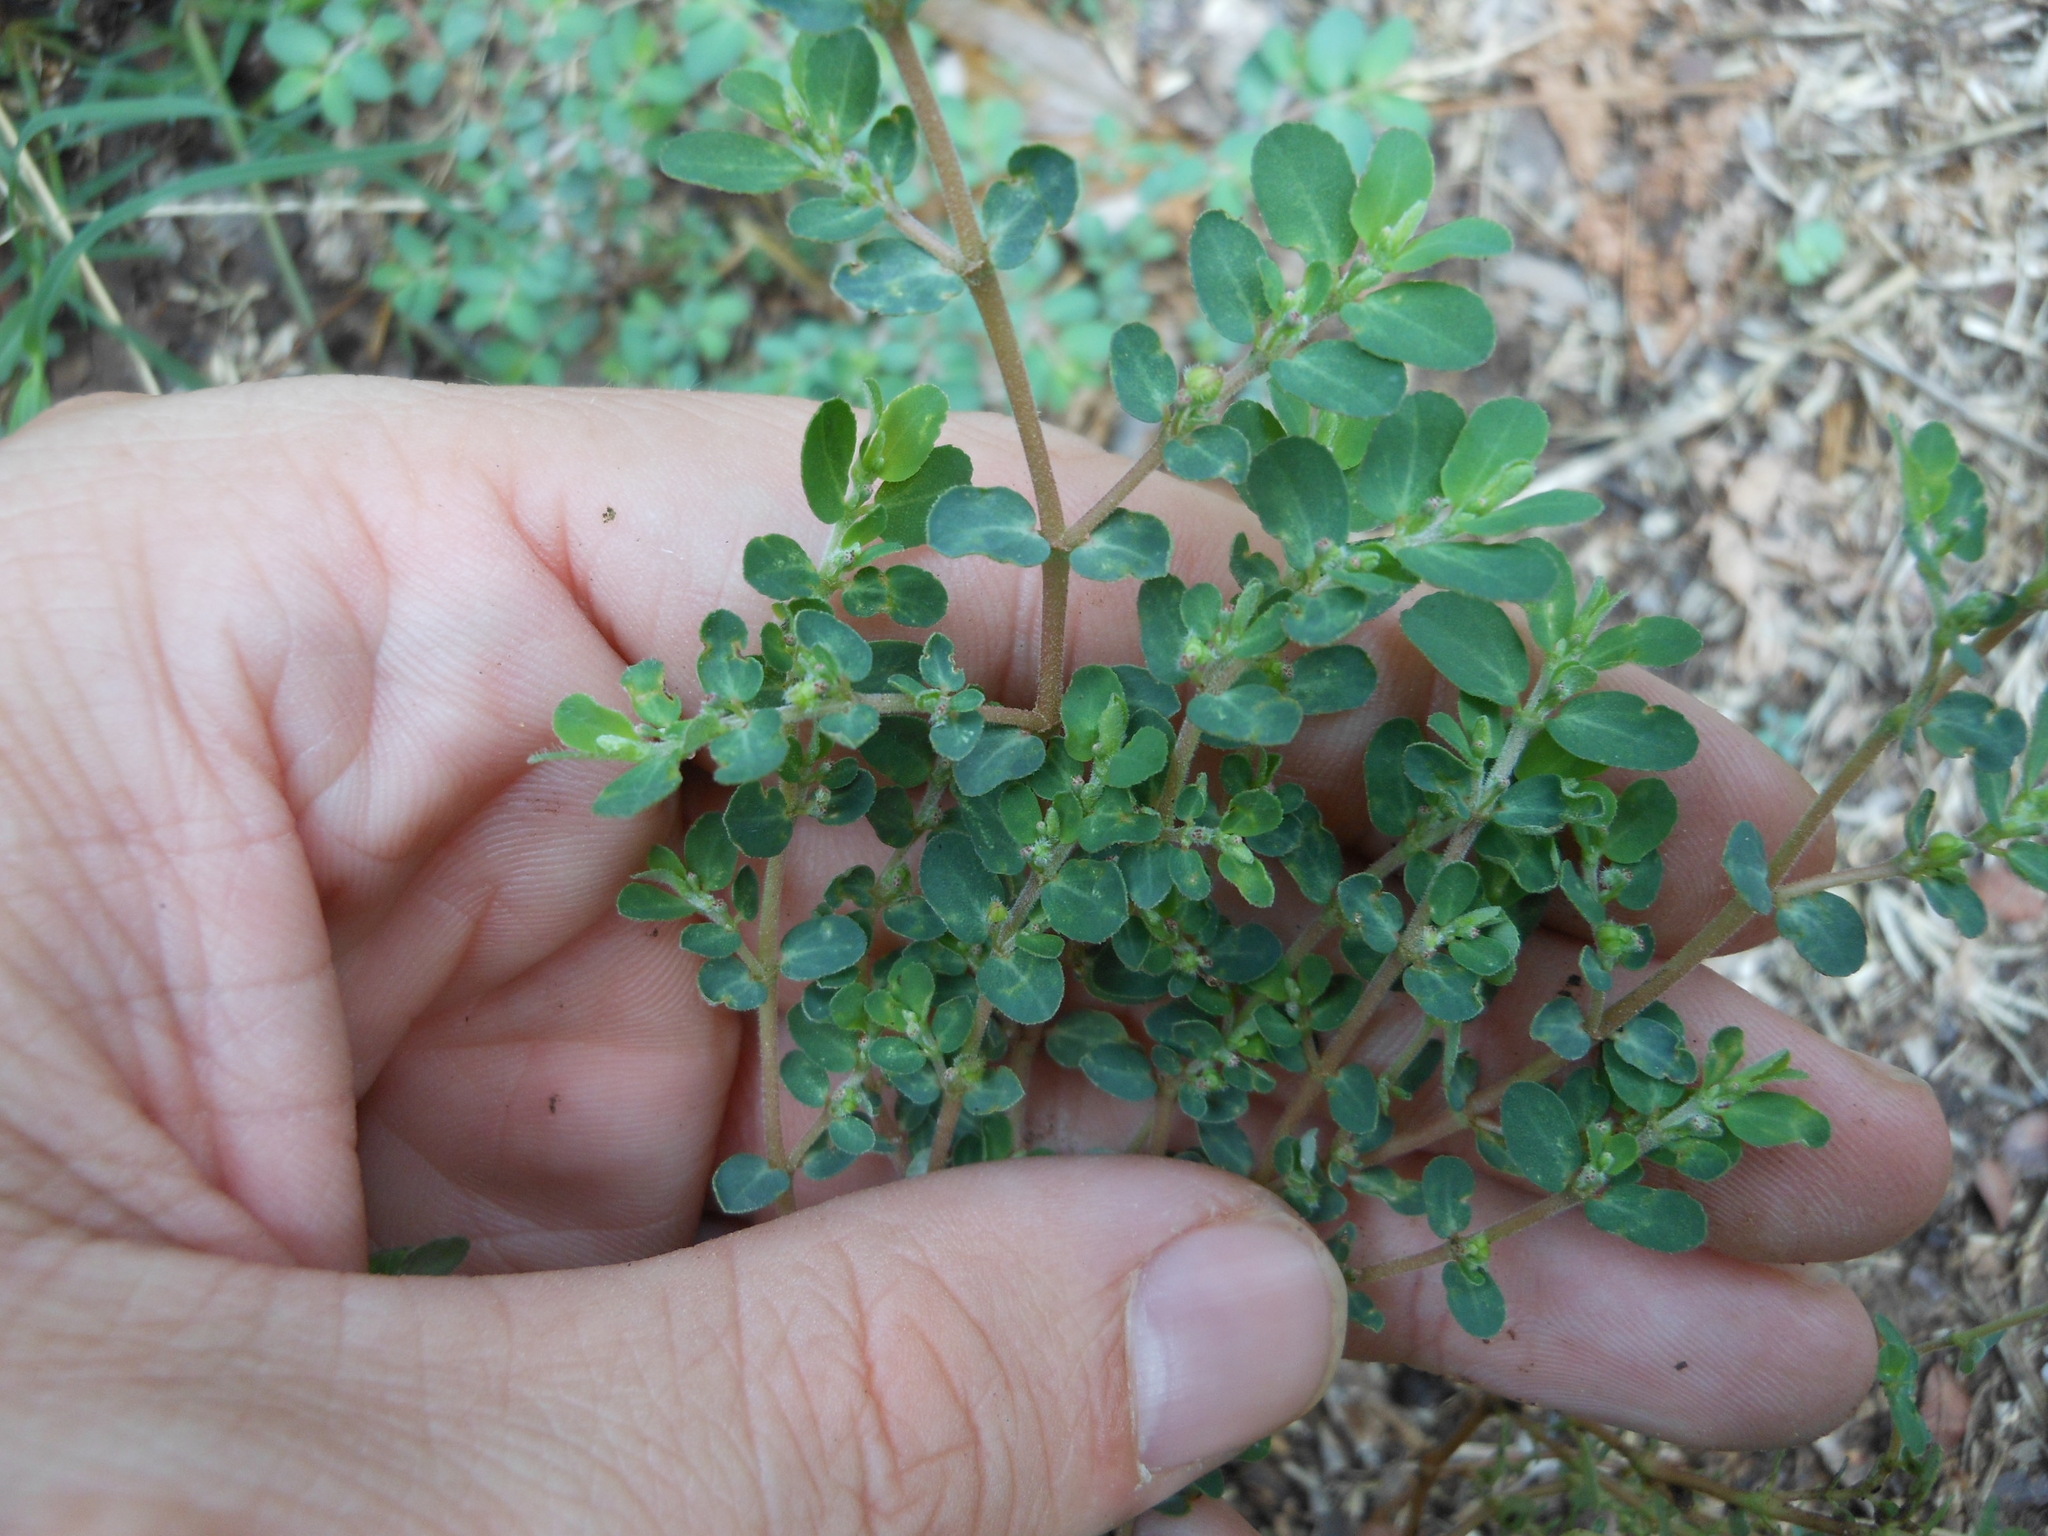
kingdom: Plantae
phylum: Tracheophyta
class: Magnoliopsida
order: Malpighiales
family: Euphorbiaceae
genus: Euphorbia
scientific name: Euphorbia prostrata
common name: Prostrate sandmat
